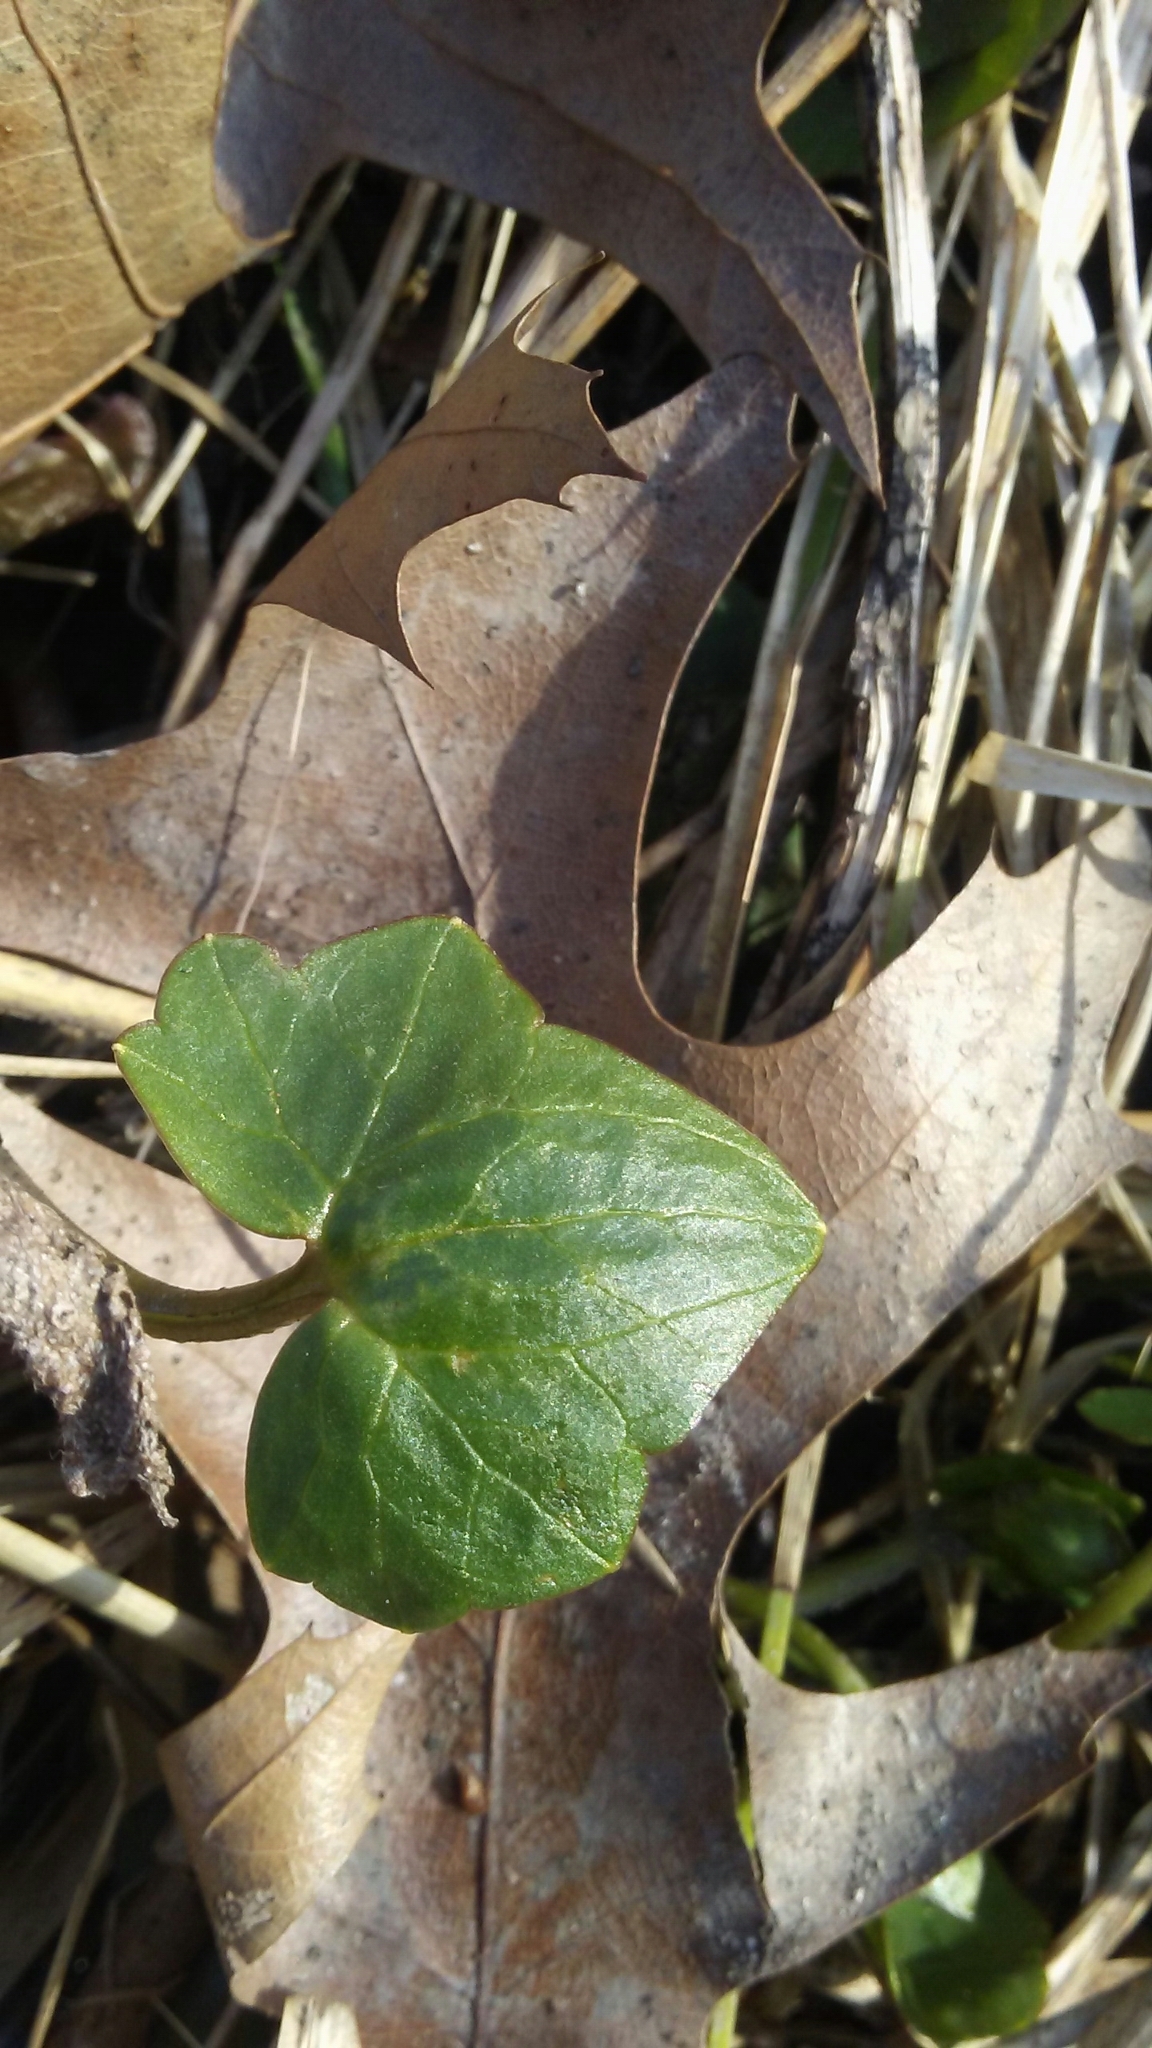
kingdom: Plantae
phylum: Tracheophyta
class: Magnoliopsida
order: Ranunculales
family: Ranunculaceae
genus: Ficaria
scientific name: Ficaria verna
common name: Lesser celandine
